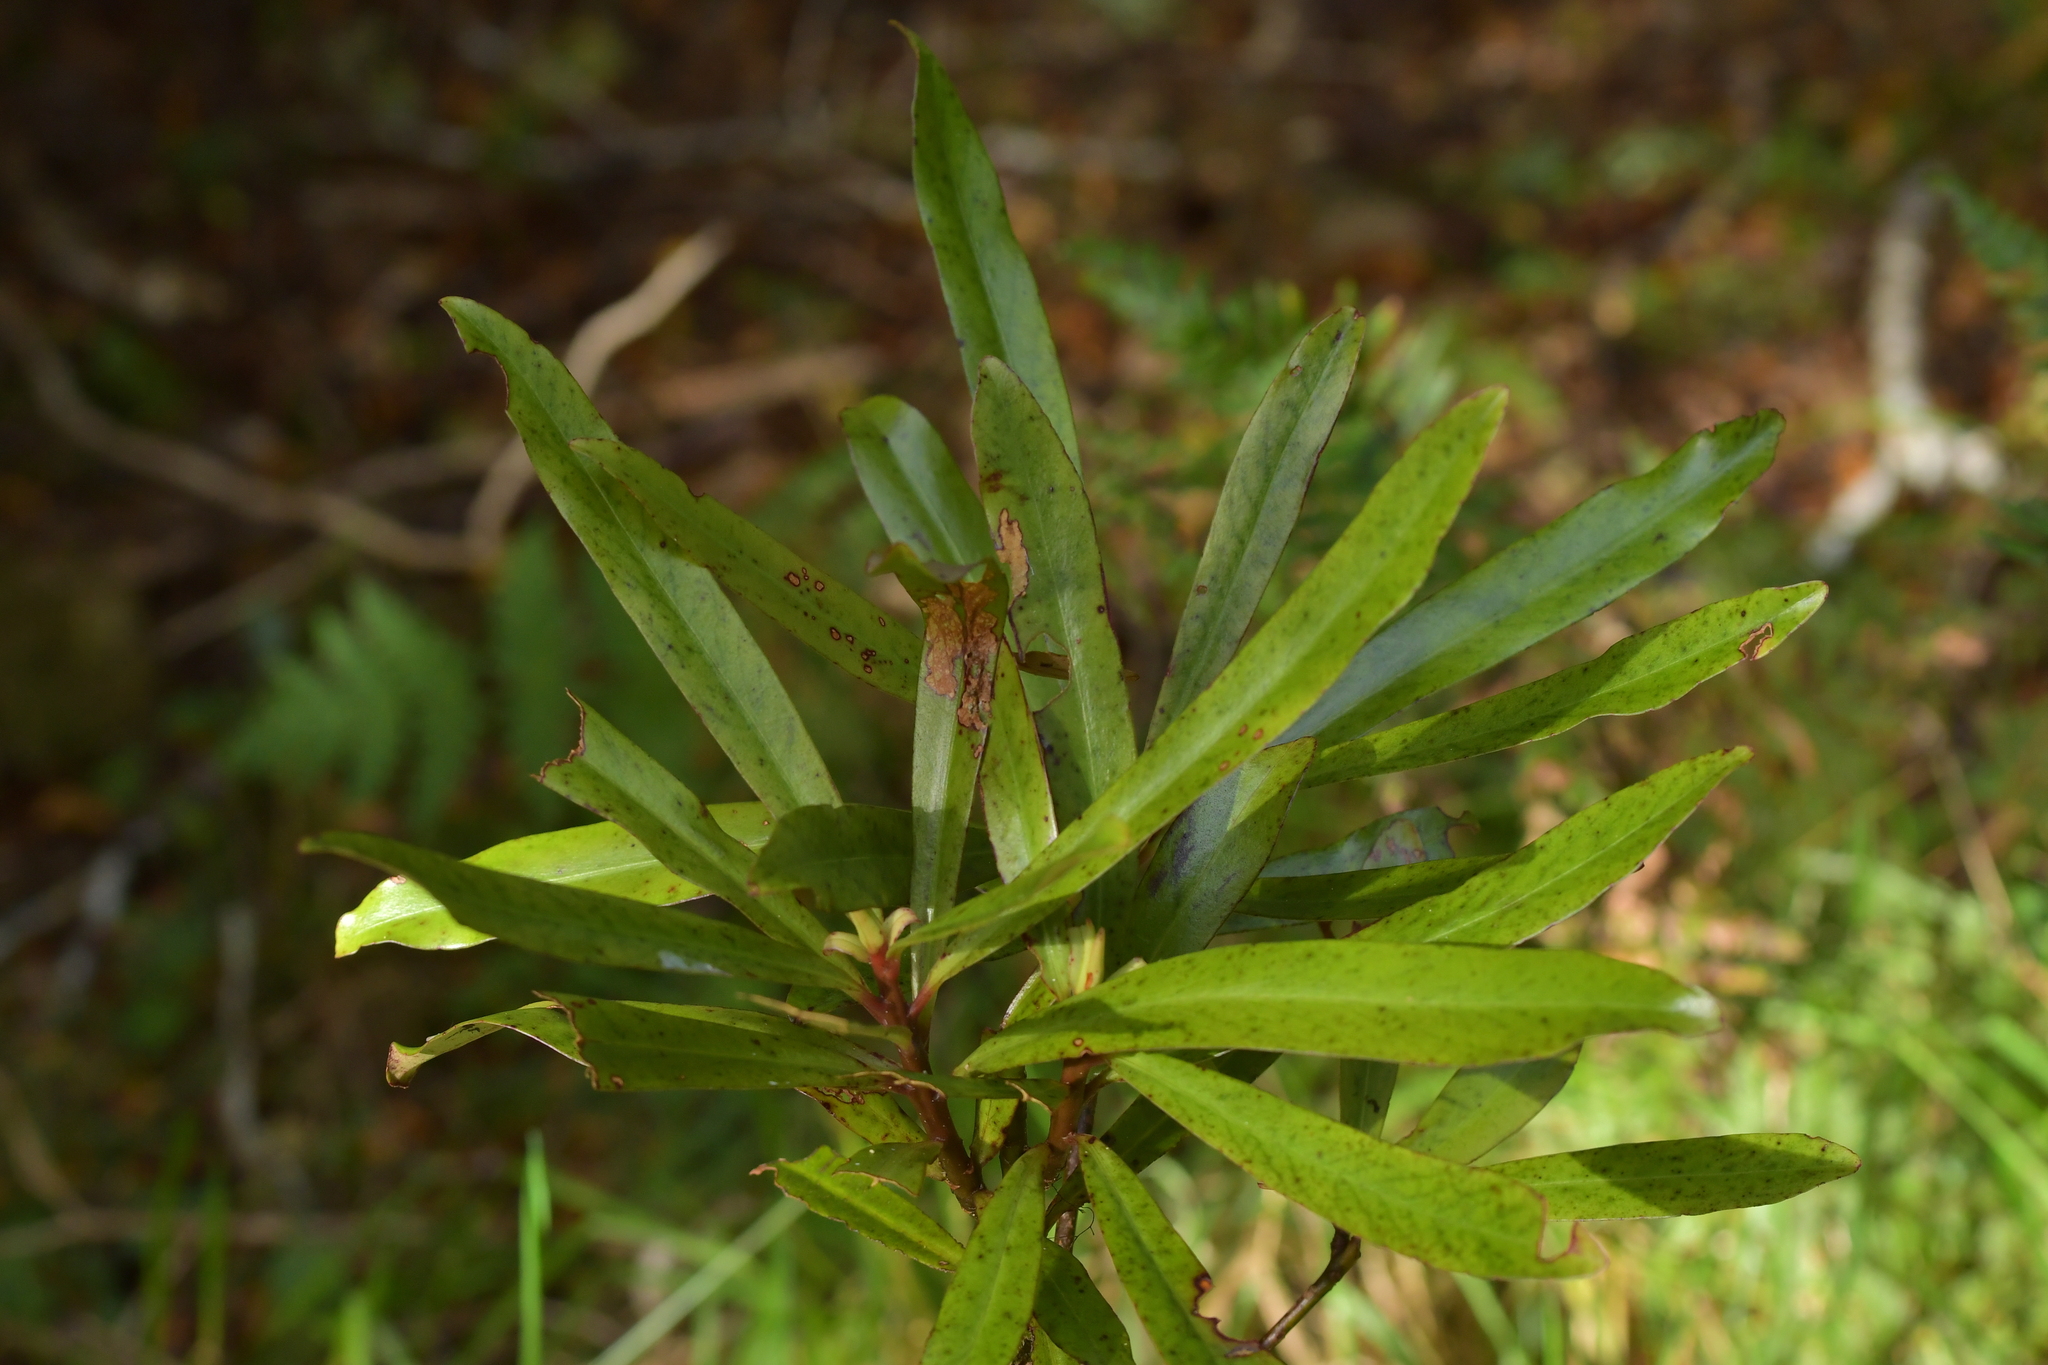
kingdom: Plantae
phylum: Tracheophyta
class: Magnoliopsida
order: Ericales
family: Primulaceae
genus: Myrsine
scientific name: Myrsine salicina
